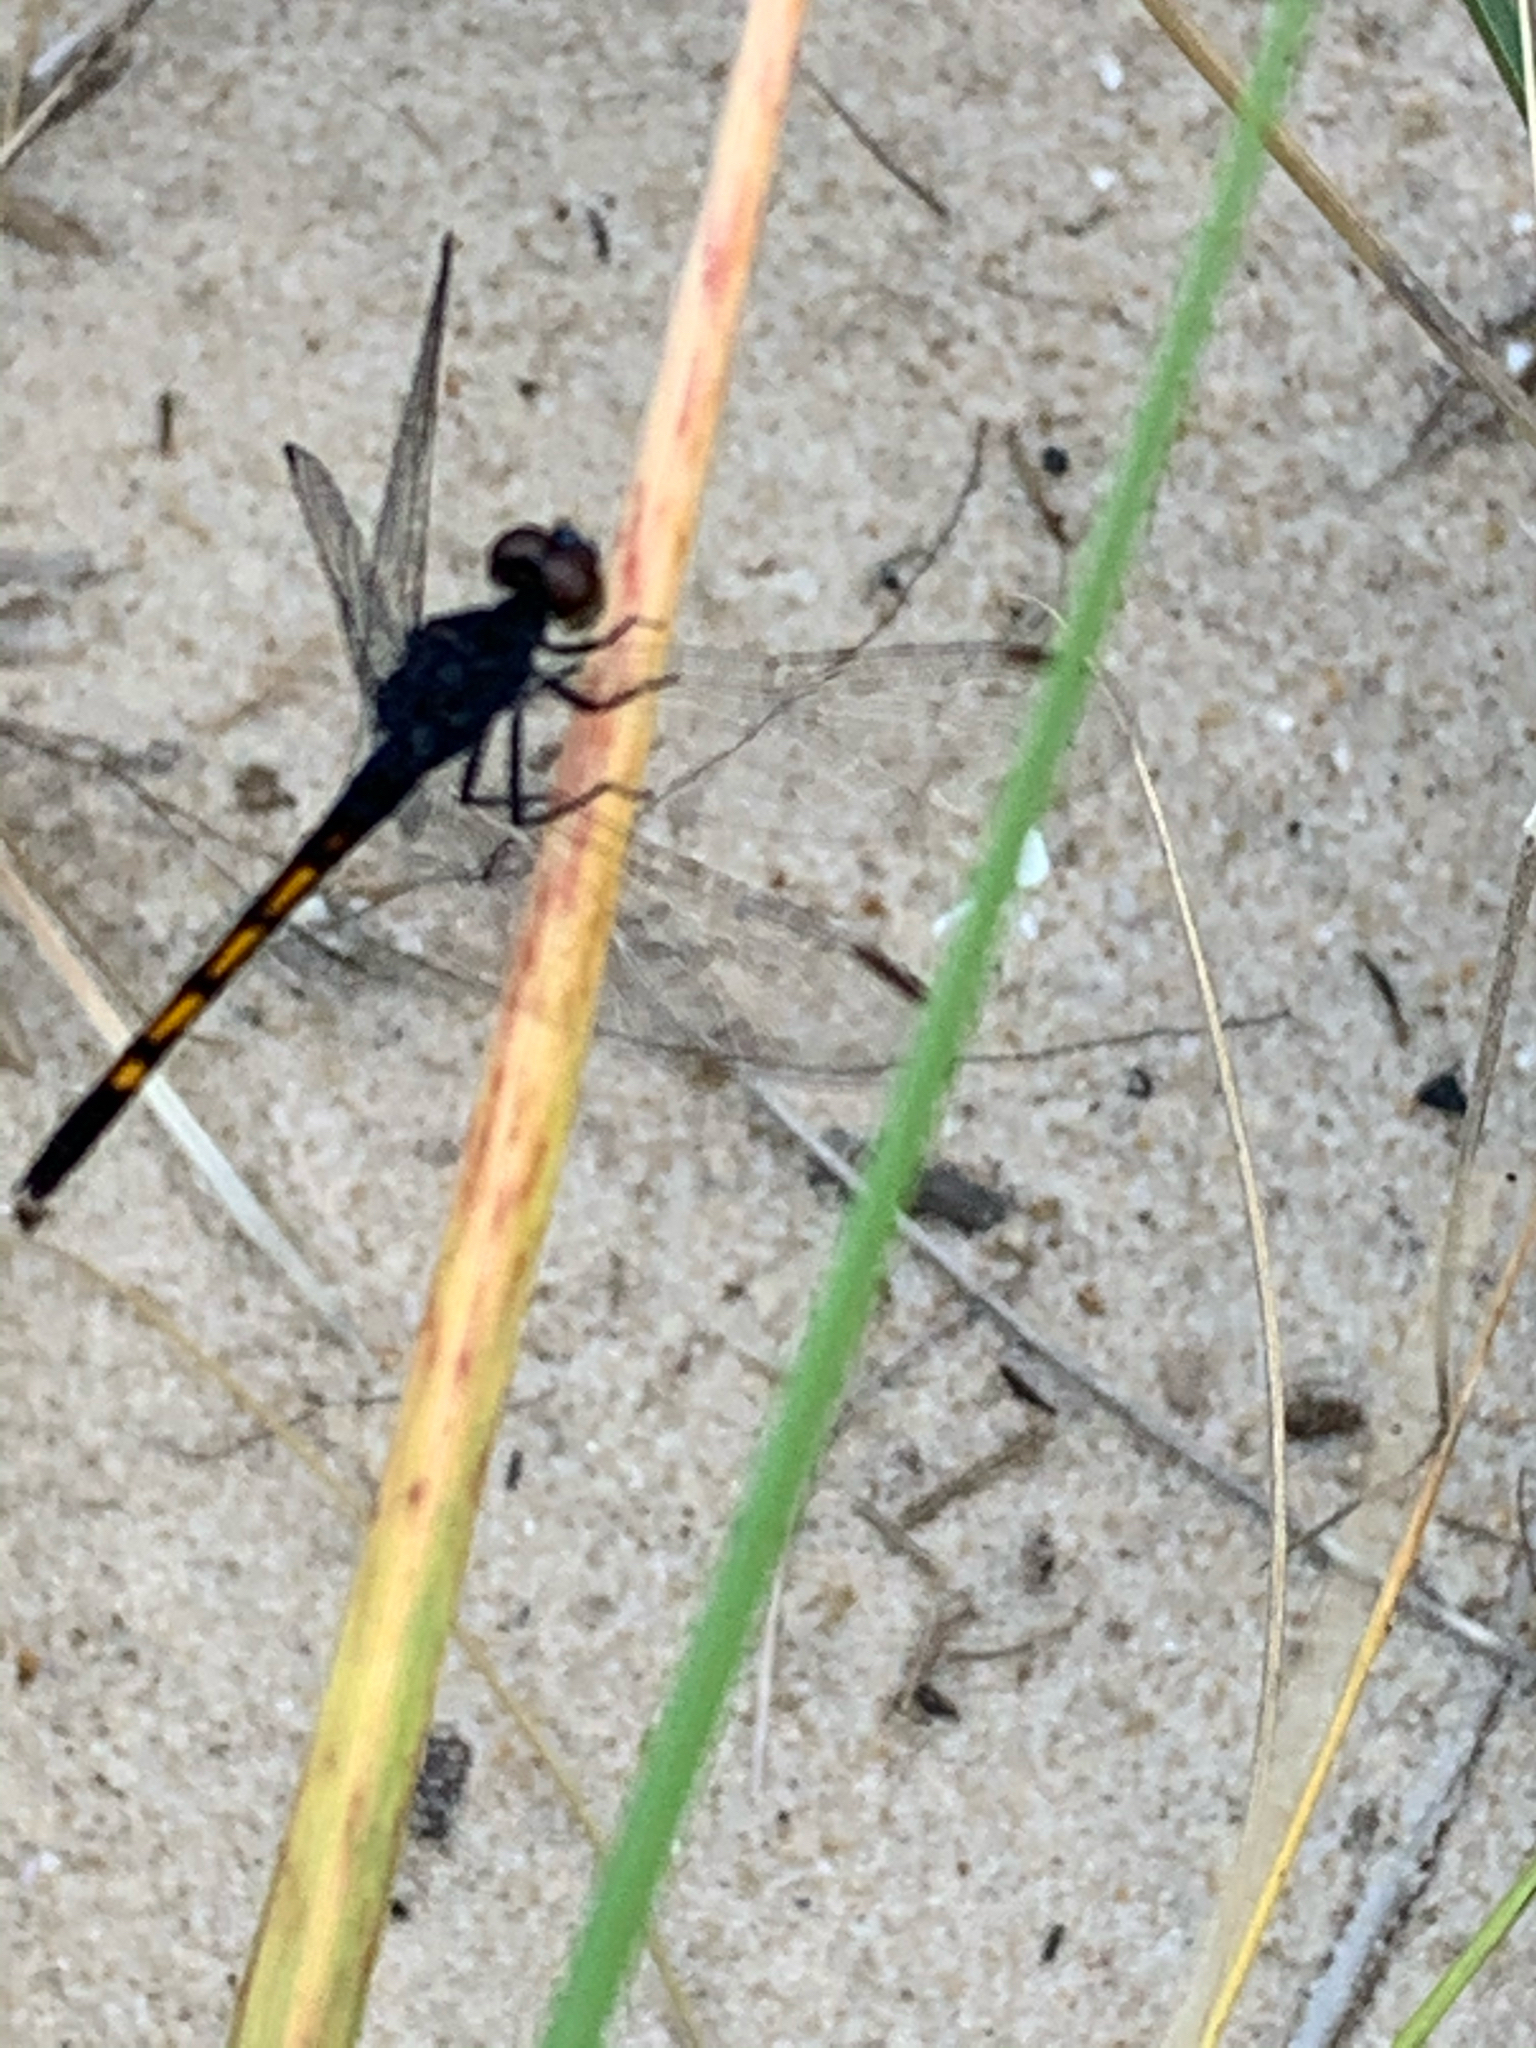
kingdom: Animalia
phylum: Arthropoda
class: Insecta
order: Odonata
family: Libellulidae
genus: Erythrodiplax
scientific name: Erythrodiplax berenice
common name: Seaside dragonlet
